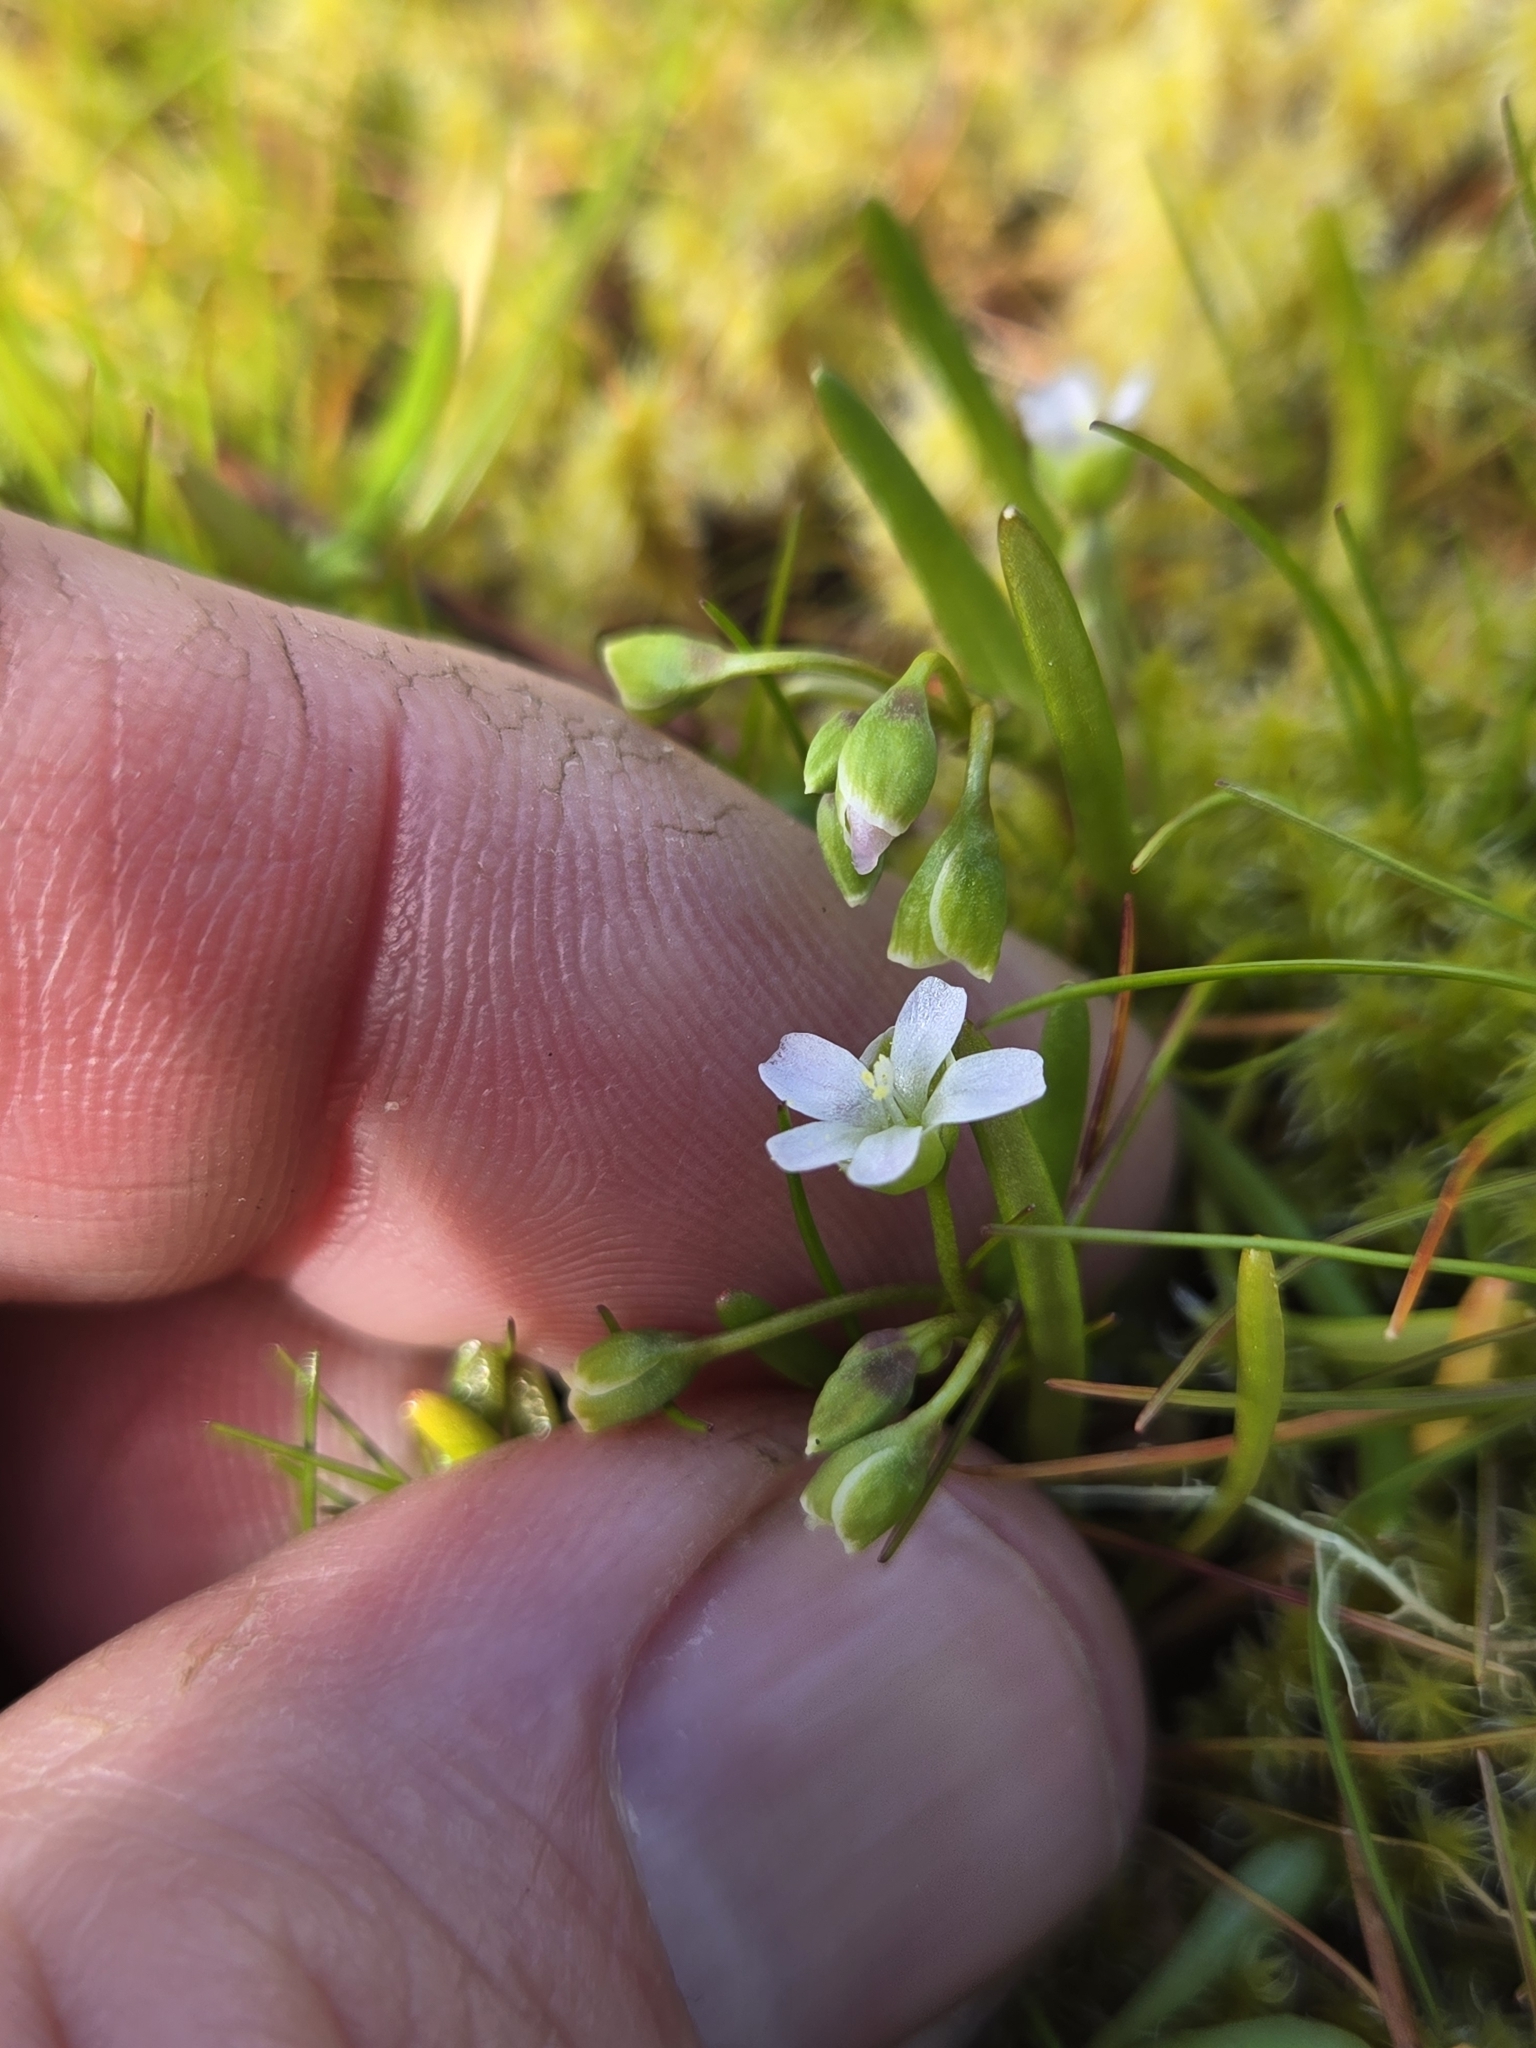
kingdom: Plantae
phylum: Tracheophyta
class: Magnoliopsida
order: Caryophyllales
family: Montiaceae
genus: Montia
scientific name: Montia linearis
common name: Narrow-leaf montia
